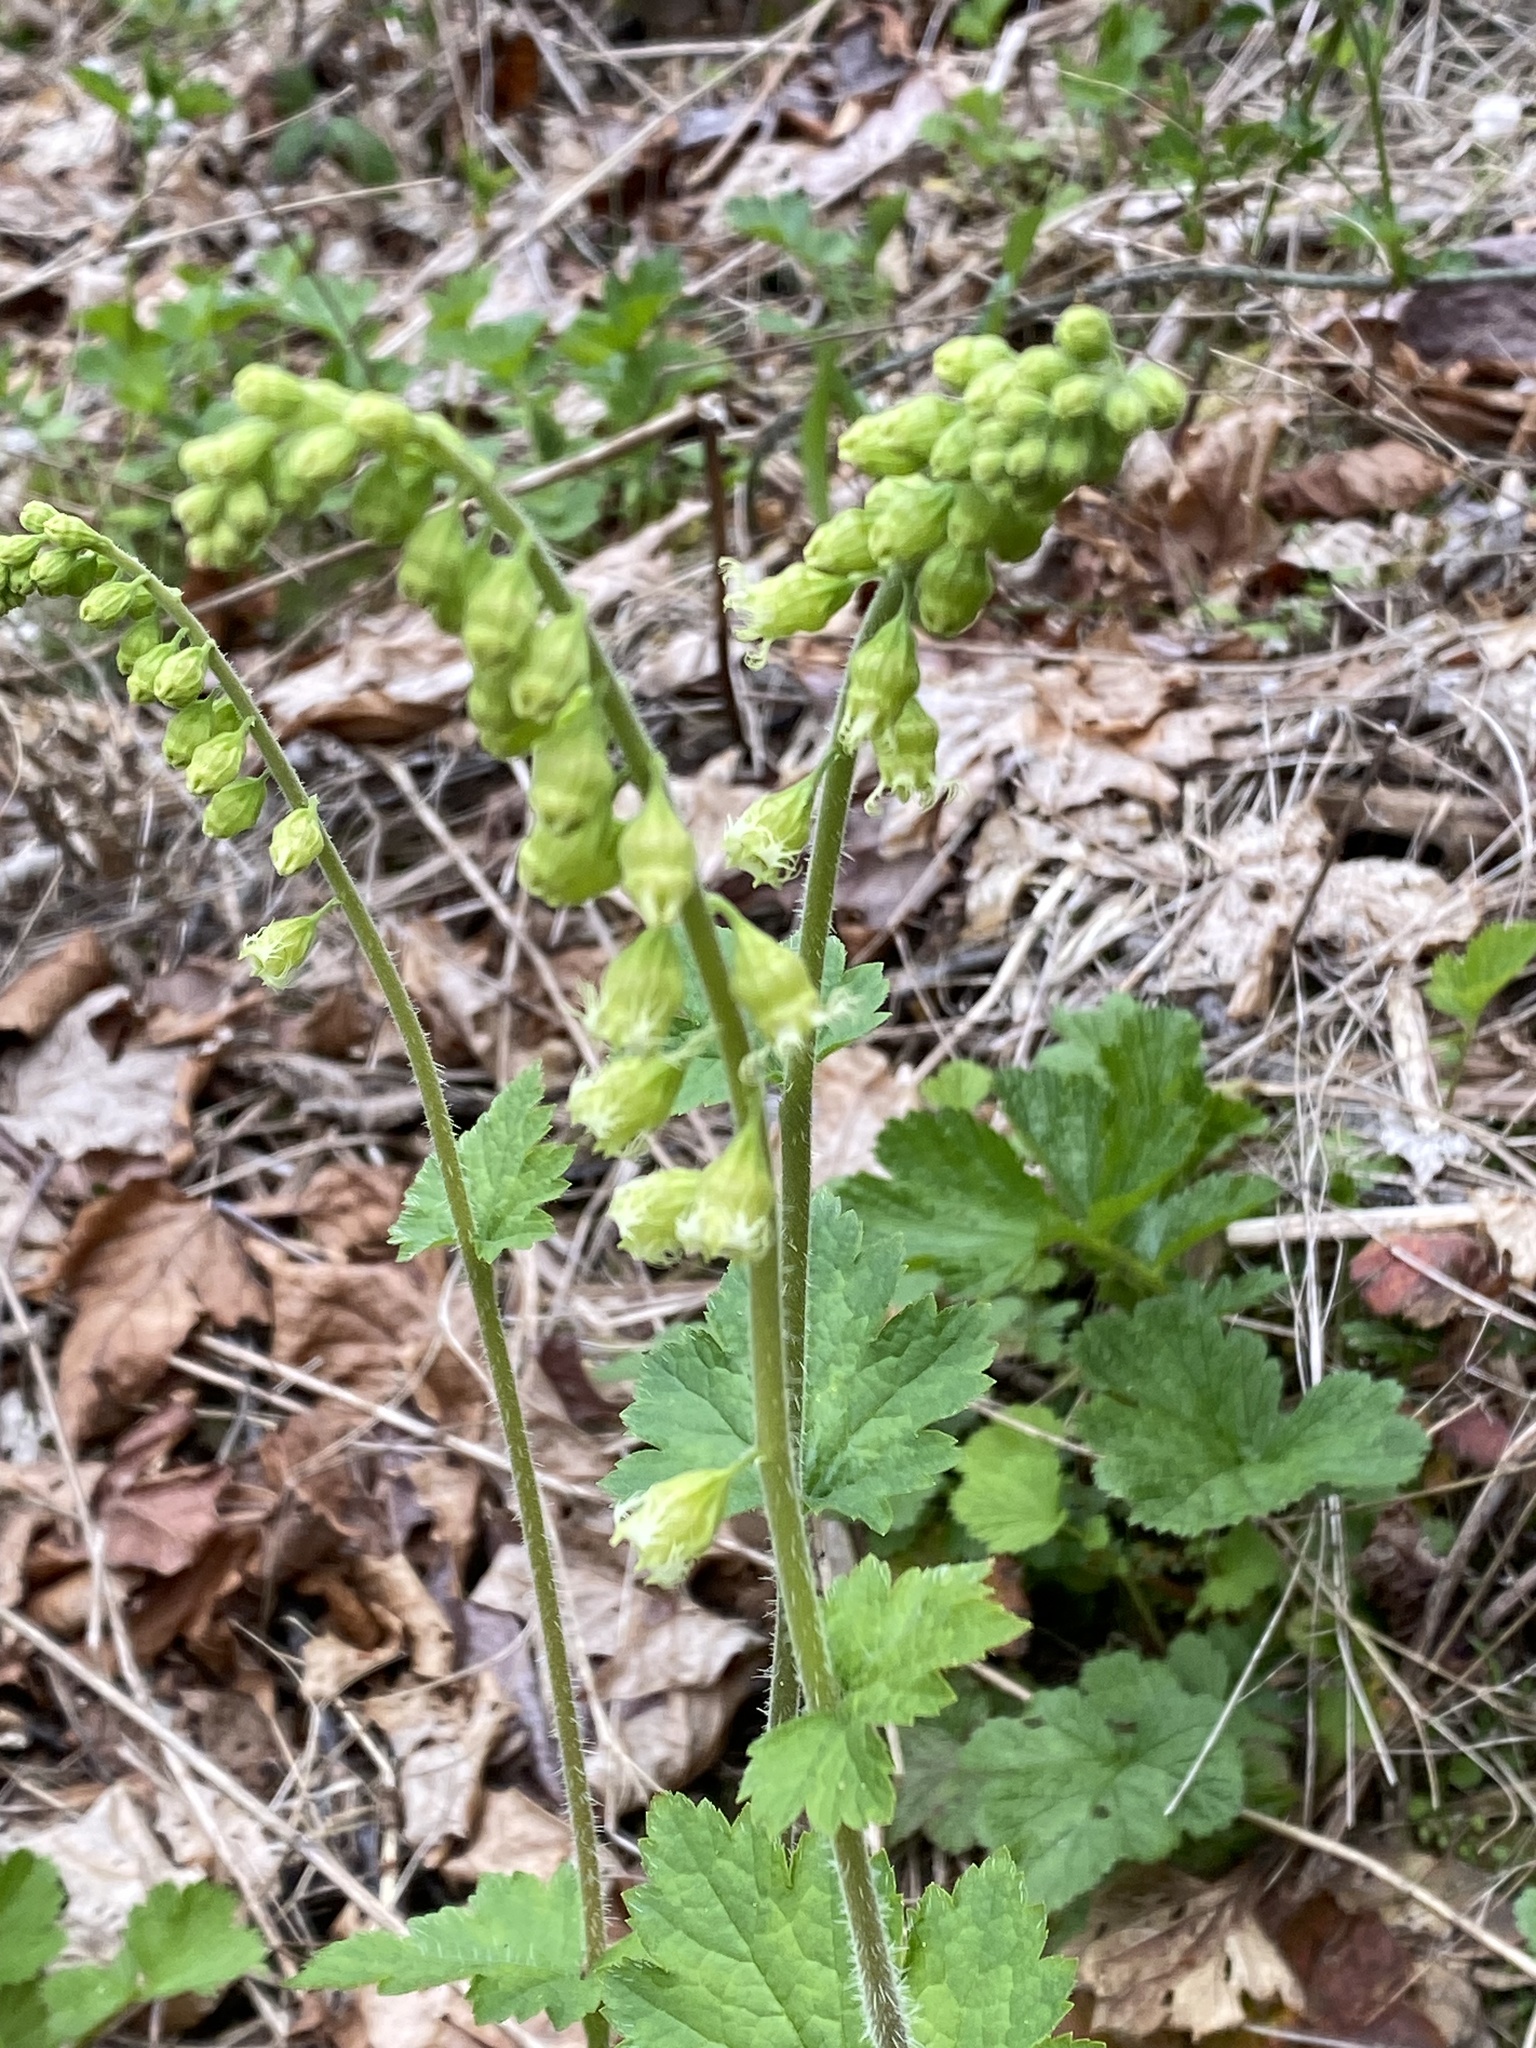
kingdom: Plantae
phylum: Tracheophyta
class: Magnoliopsida
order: Saxifragales
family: Saxifragaceae
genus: Tellima
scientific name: Tellima grandiflora
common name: Fringecups
